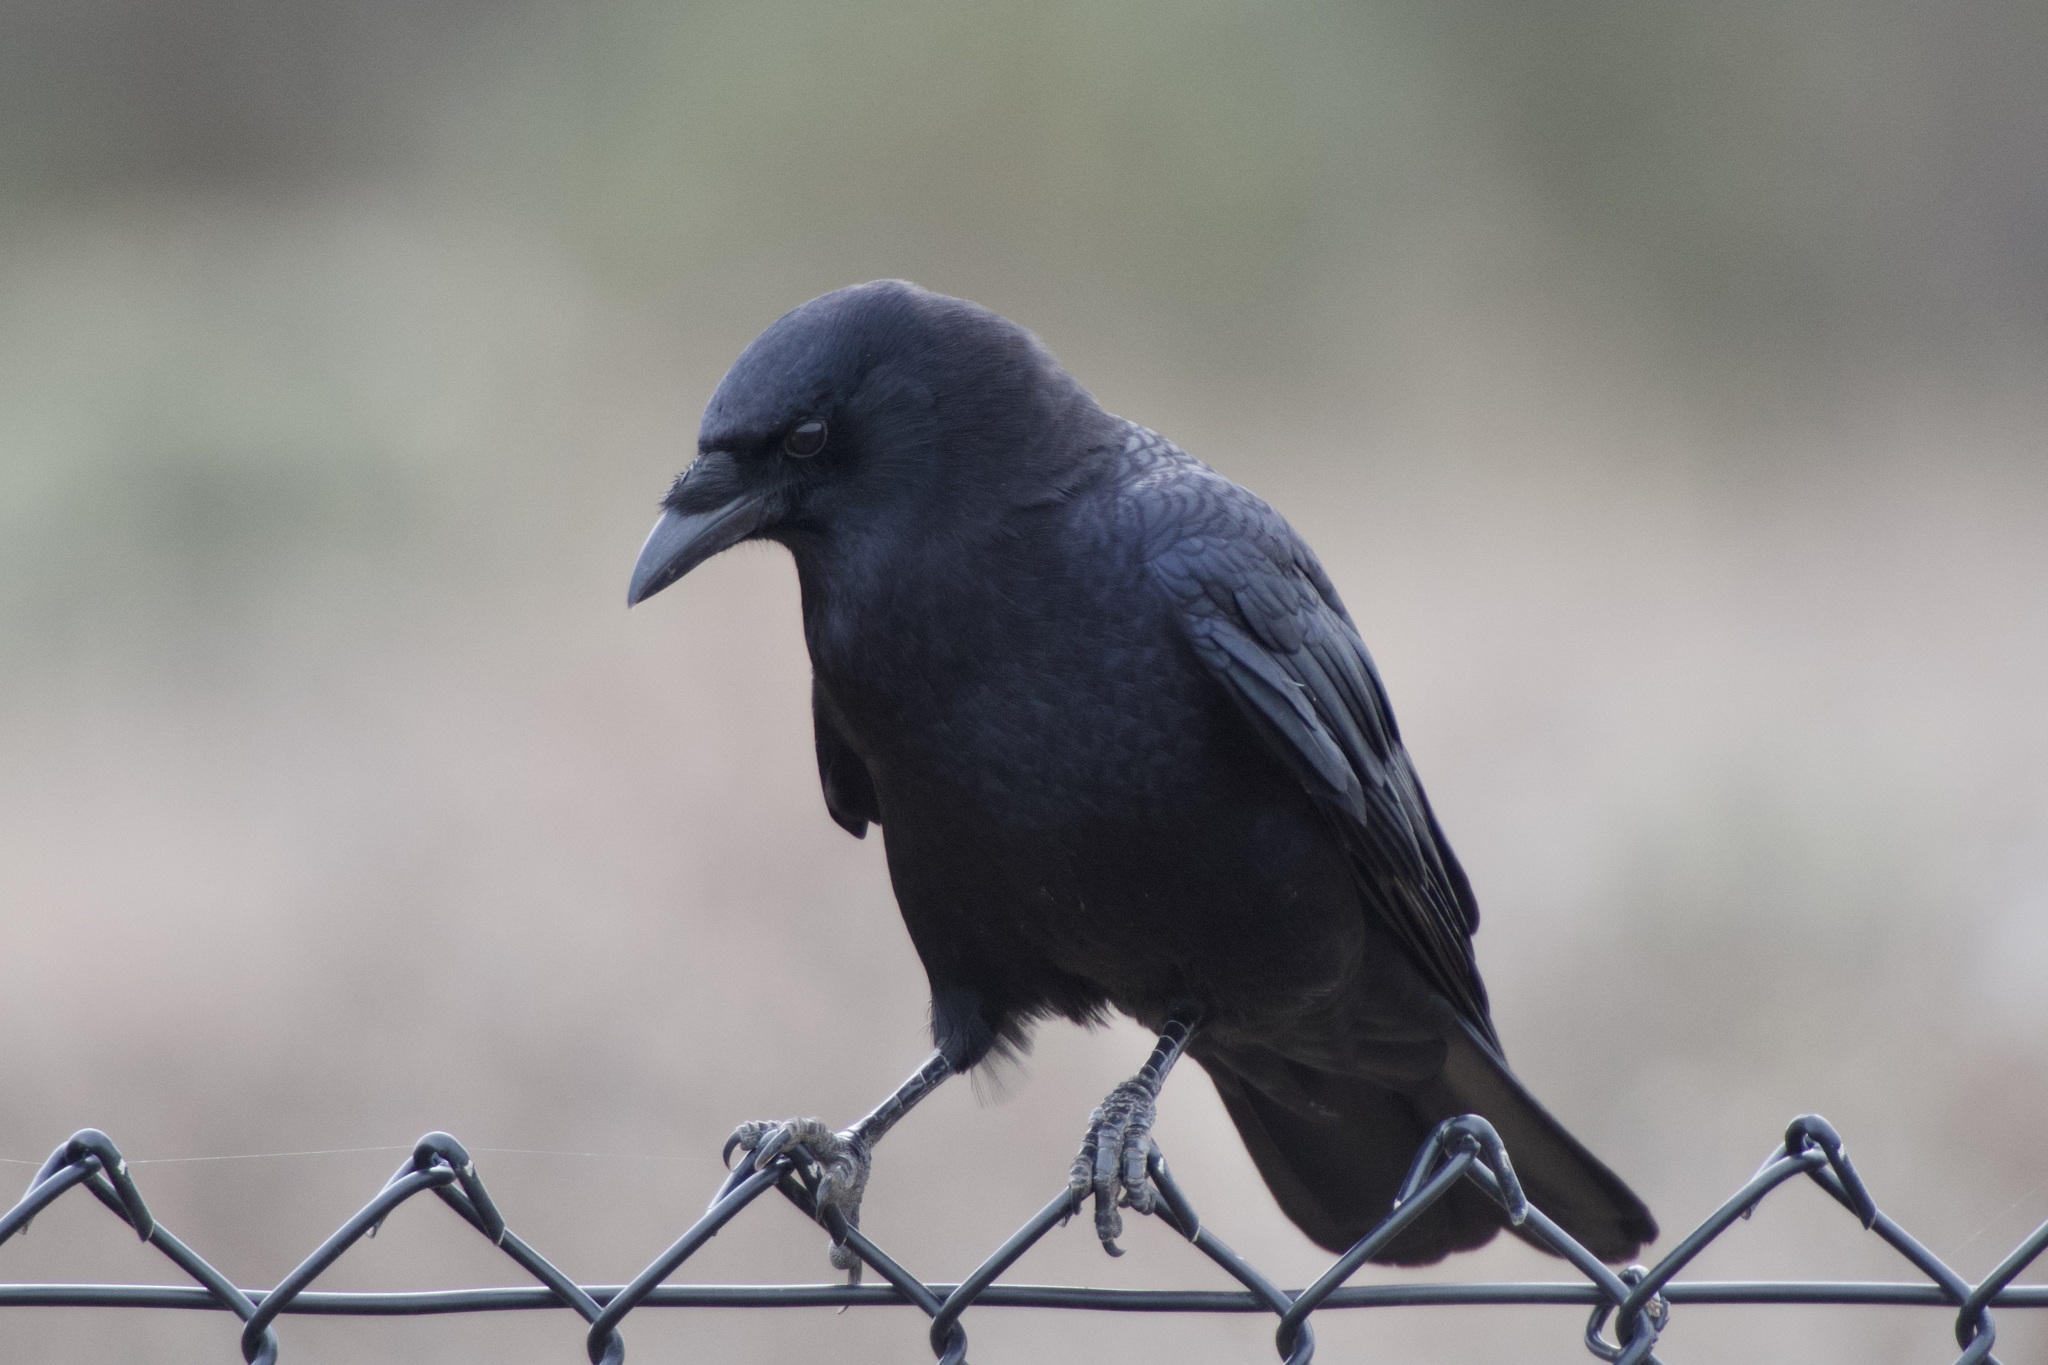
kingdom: Animalia
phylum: Chordata
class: Aves
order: Passeriformes
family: Corvidae
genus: Corvus
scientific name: Corvus brachyrhynchos
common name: American crow
